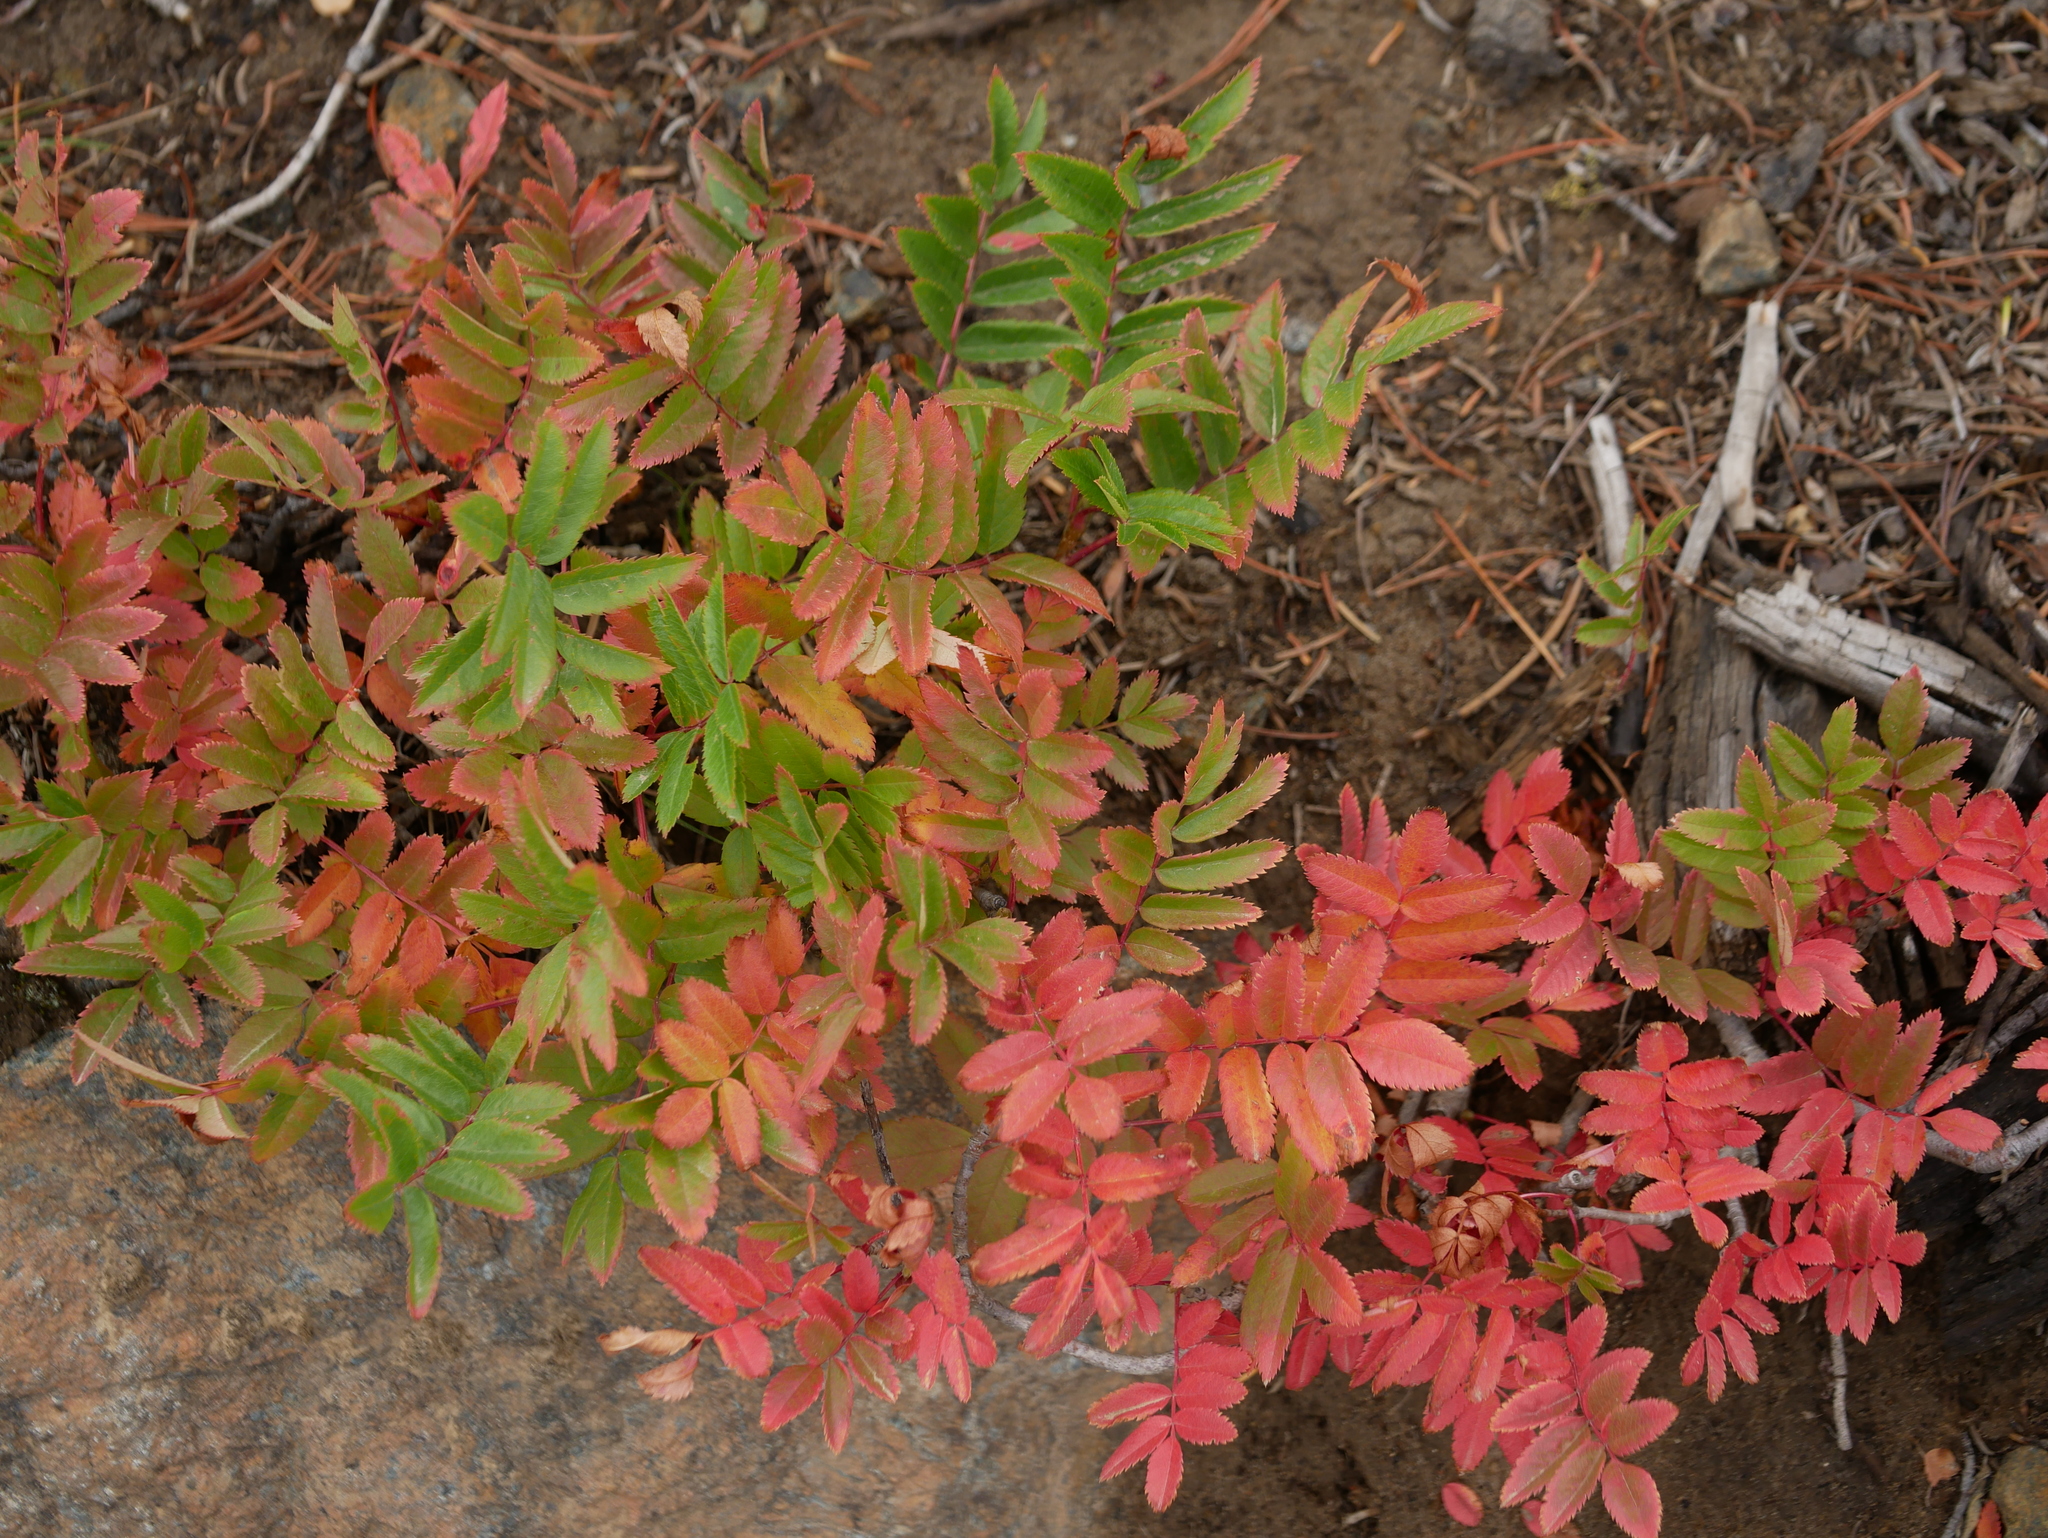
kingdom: Plantae
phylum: Tracheophyta
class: Magnoliopsida
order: Rosales
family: Rosaceae
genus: Sorbus
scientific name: Sorbus scopulina
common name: Greene's mountain-ash
